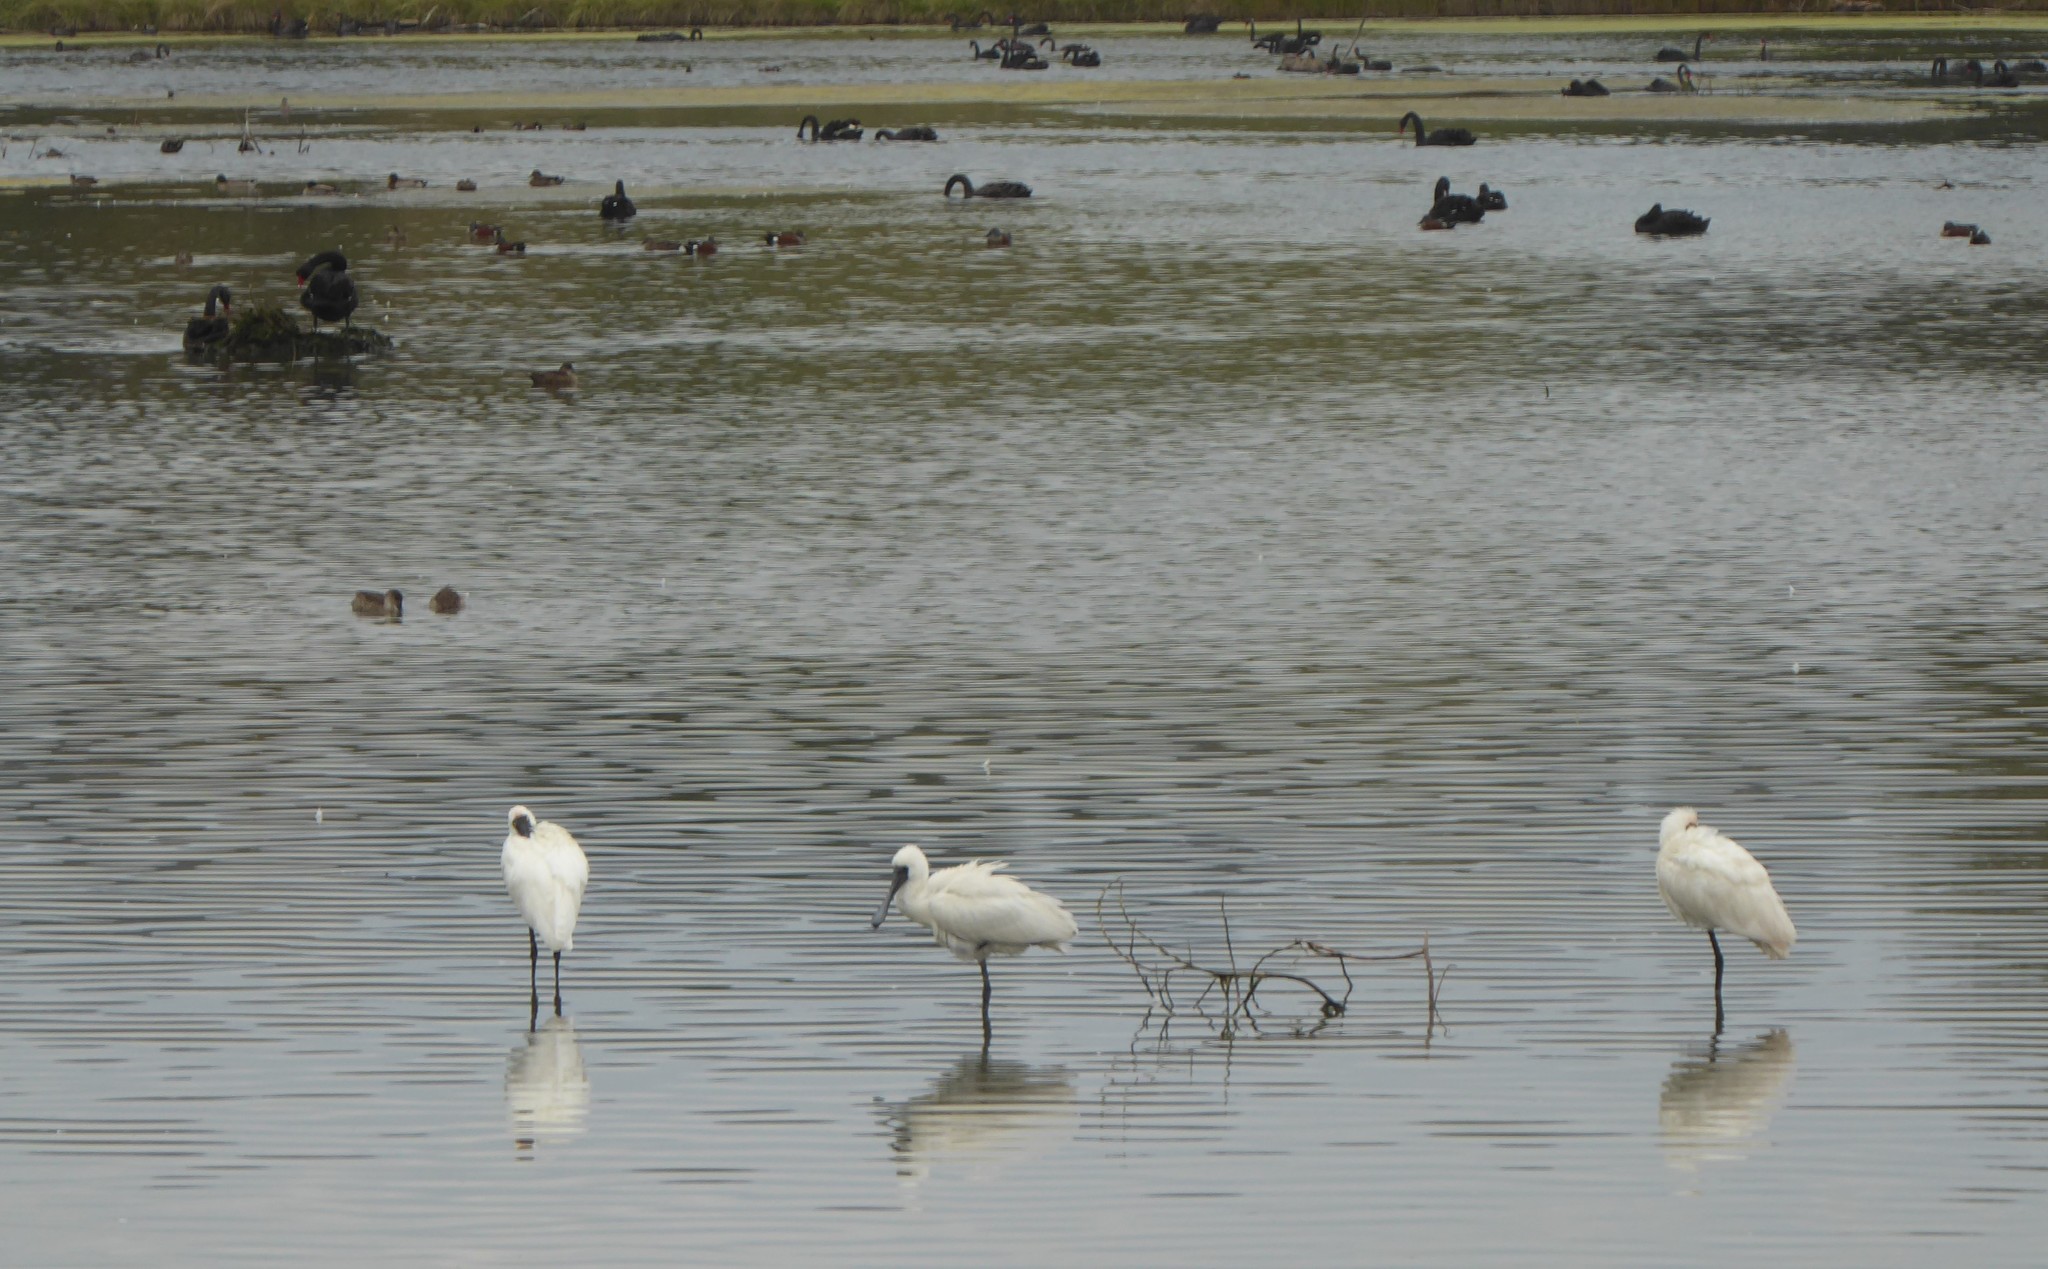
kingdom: Animalia
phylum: Chordata
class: Aves
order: Pelecaniformes
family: Threskiornithidae
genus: Platalea
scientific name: Platalea regia
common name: Royal spoonbill
